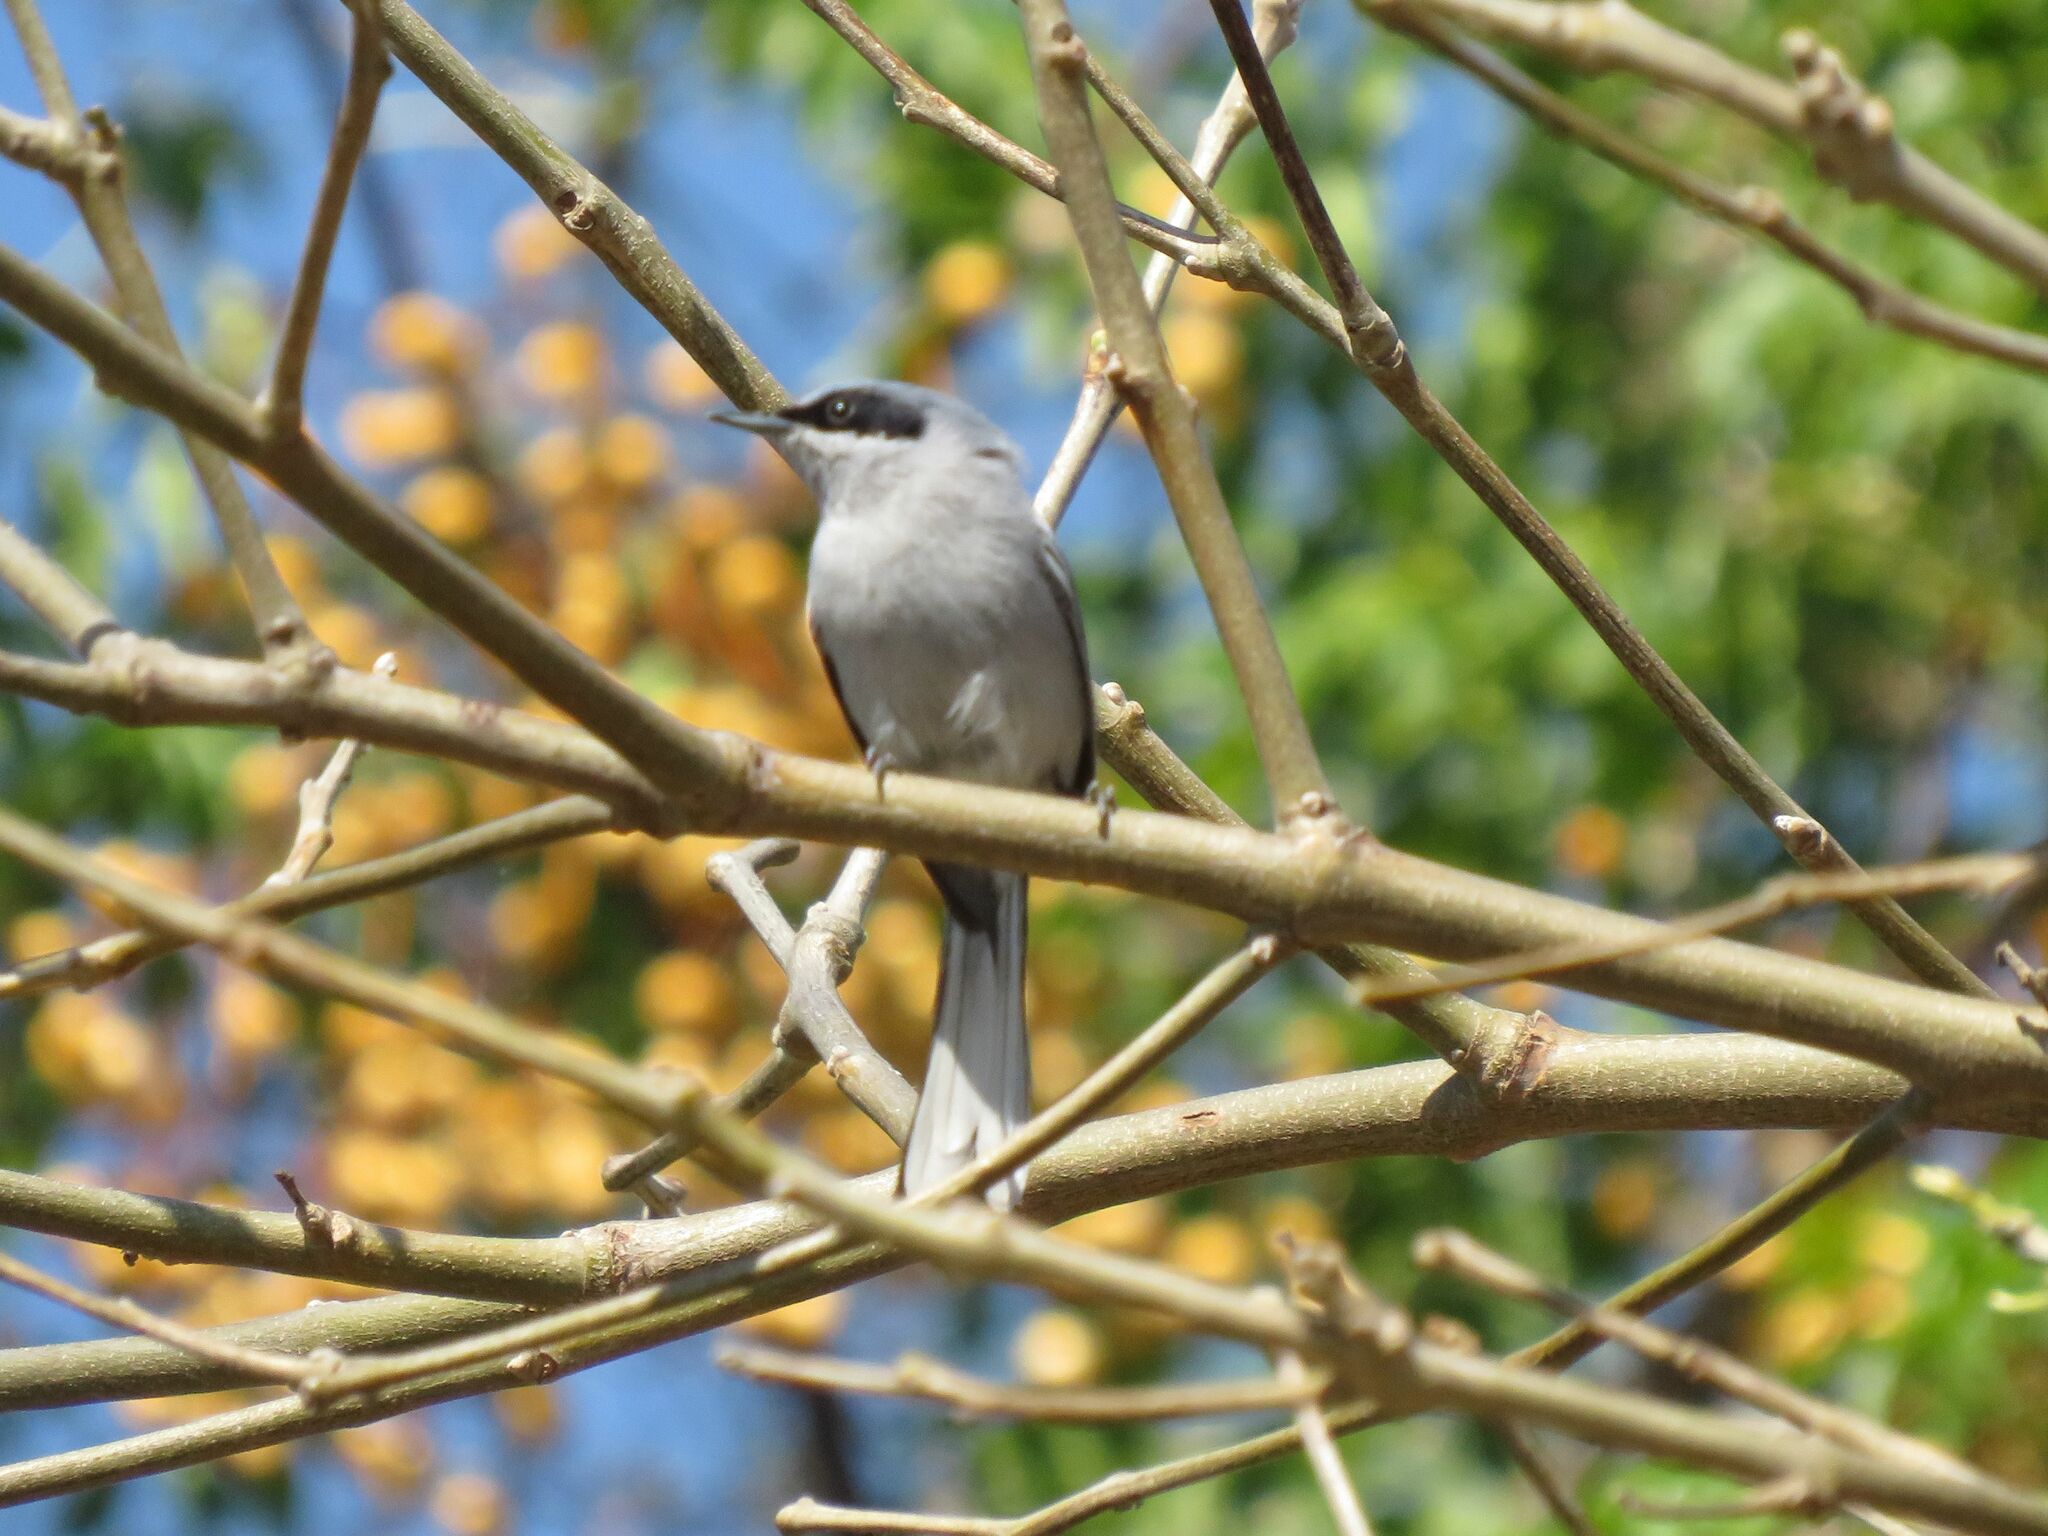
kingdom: Animalia
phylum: Chordata
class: Aves
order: Passeriformes
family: Polioptilidae
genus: Polioptila
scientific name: Polioptila dumicola
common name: Masked gnatcatcher
